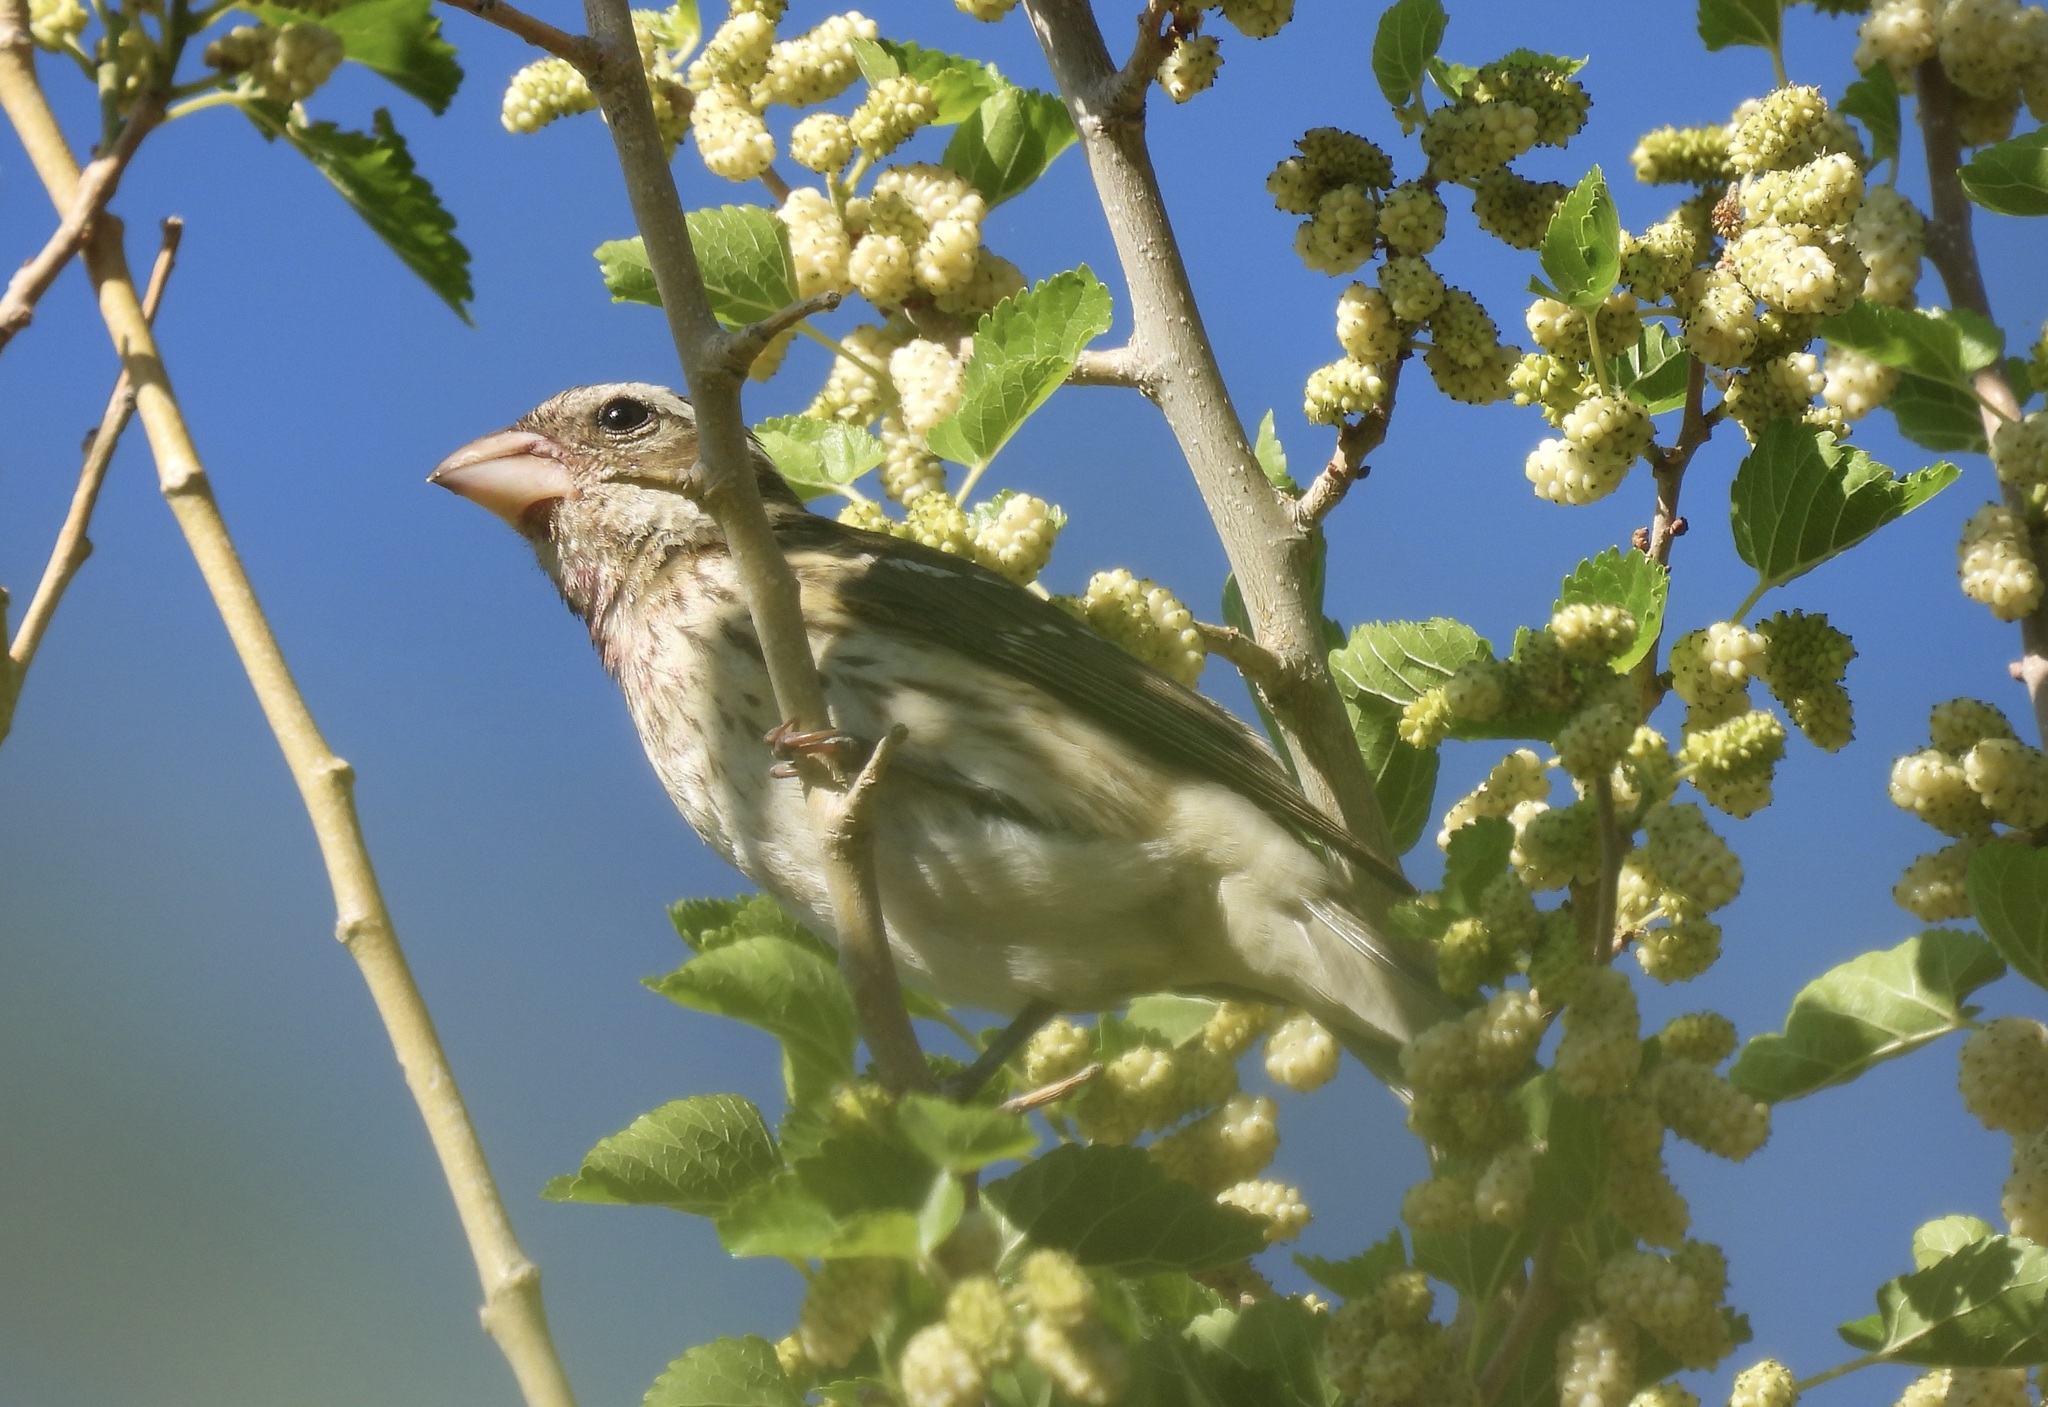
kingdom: Animalia
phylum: Chordata
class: Aves
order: Passeriformes
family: Cardinalidae
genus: Pheucticus
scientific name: Pheucticus ludovicianus
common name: Rose-breasted grosbeak
